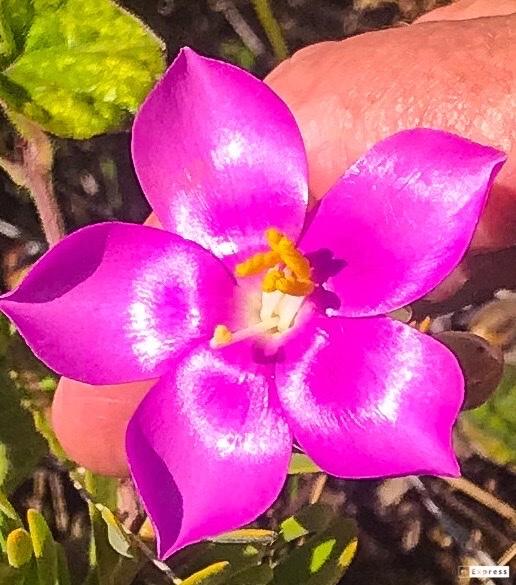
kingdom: Plantae
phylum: Tracheophyta
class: Magnoliopsida
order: Gentianales
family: Gentianaceae
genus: Orphium
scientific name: Orphium frutescens
